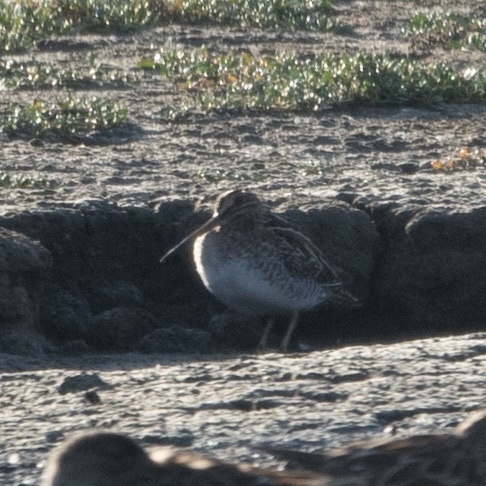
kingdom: Animalia
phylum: Chordata
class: Aves
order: Charadriiformes
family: Scolopacidae
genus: Gallinago
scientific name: Gallinago delicata
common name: Wilson's snipe
